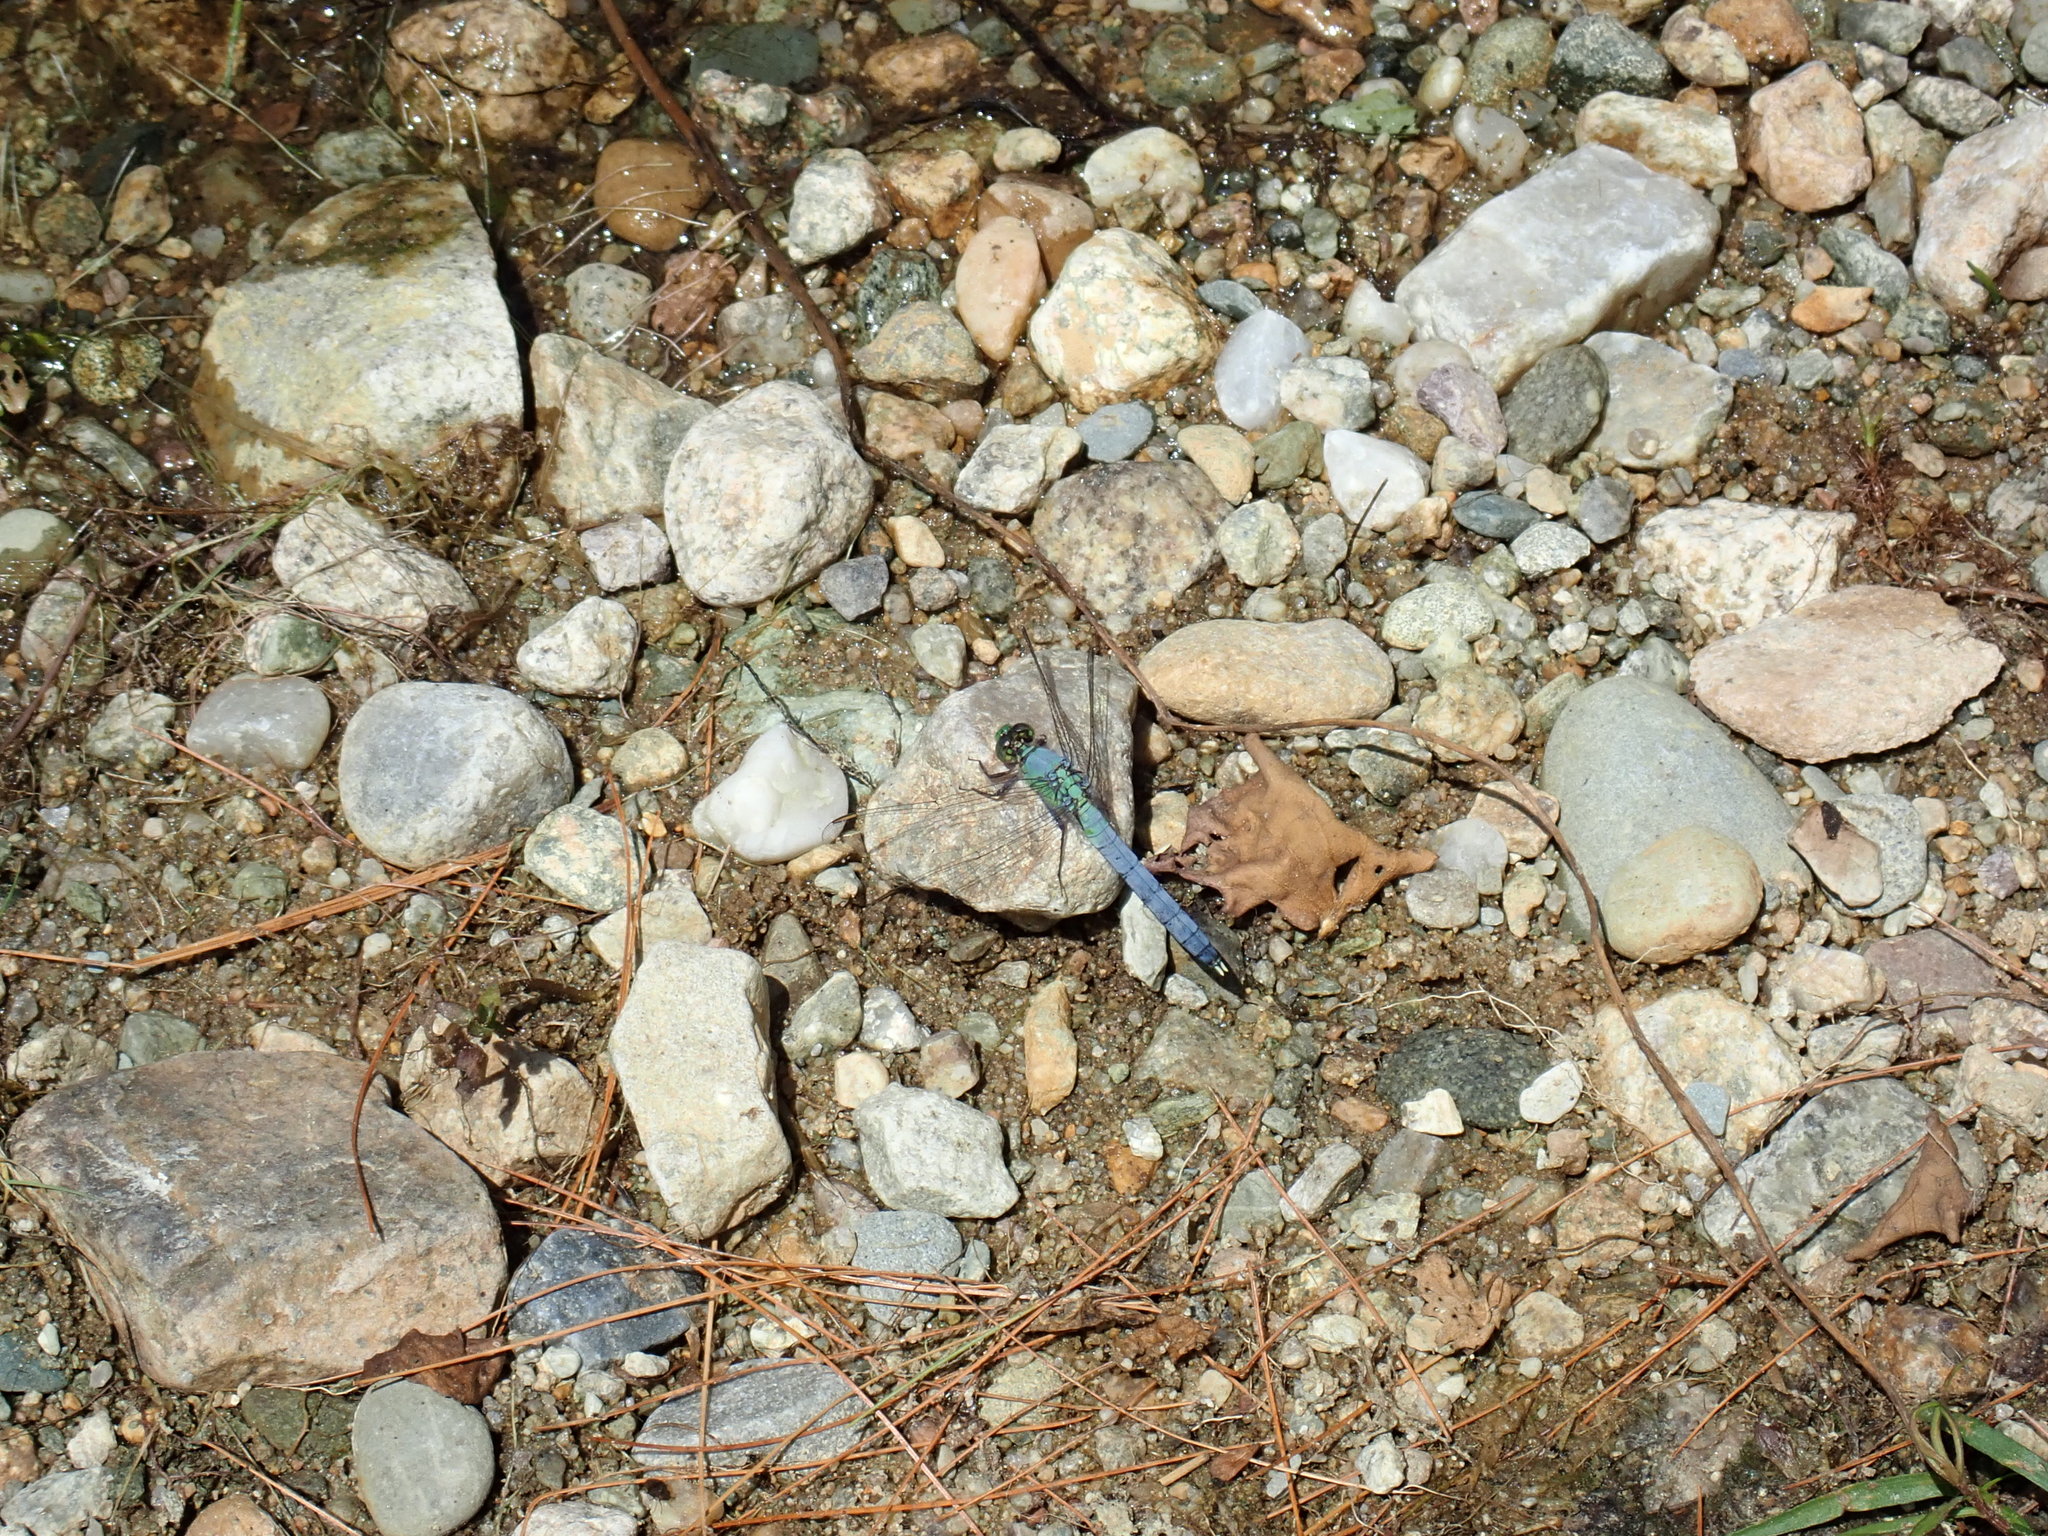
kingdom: Animalia
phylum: Arthropoda
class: Insecta
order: Odonata
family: Libellulidae
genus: Erythemis
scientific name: Erythemis simplicicollis
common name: Eastern pondhawk
